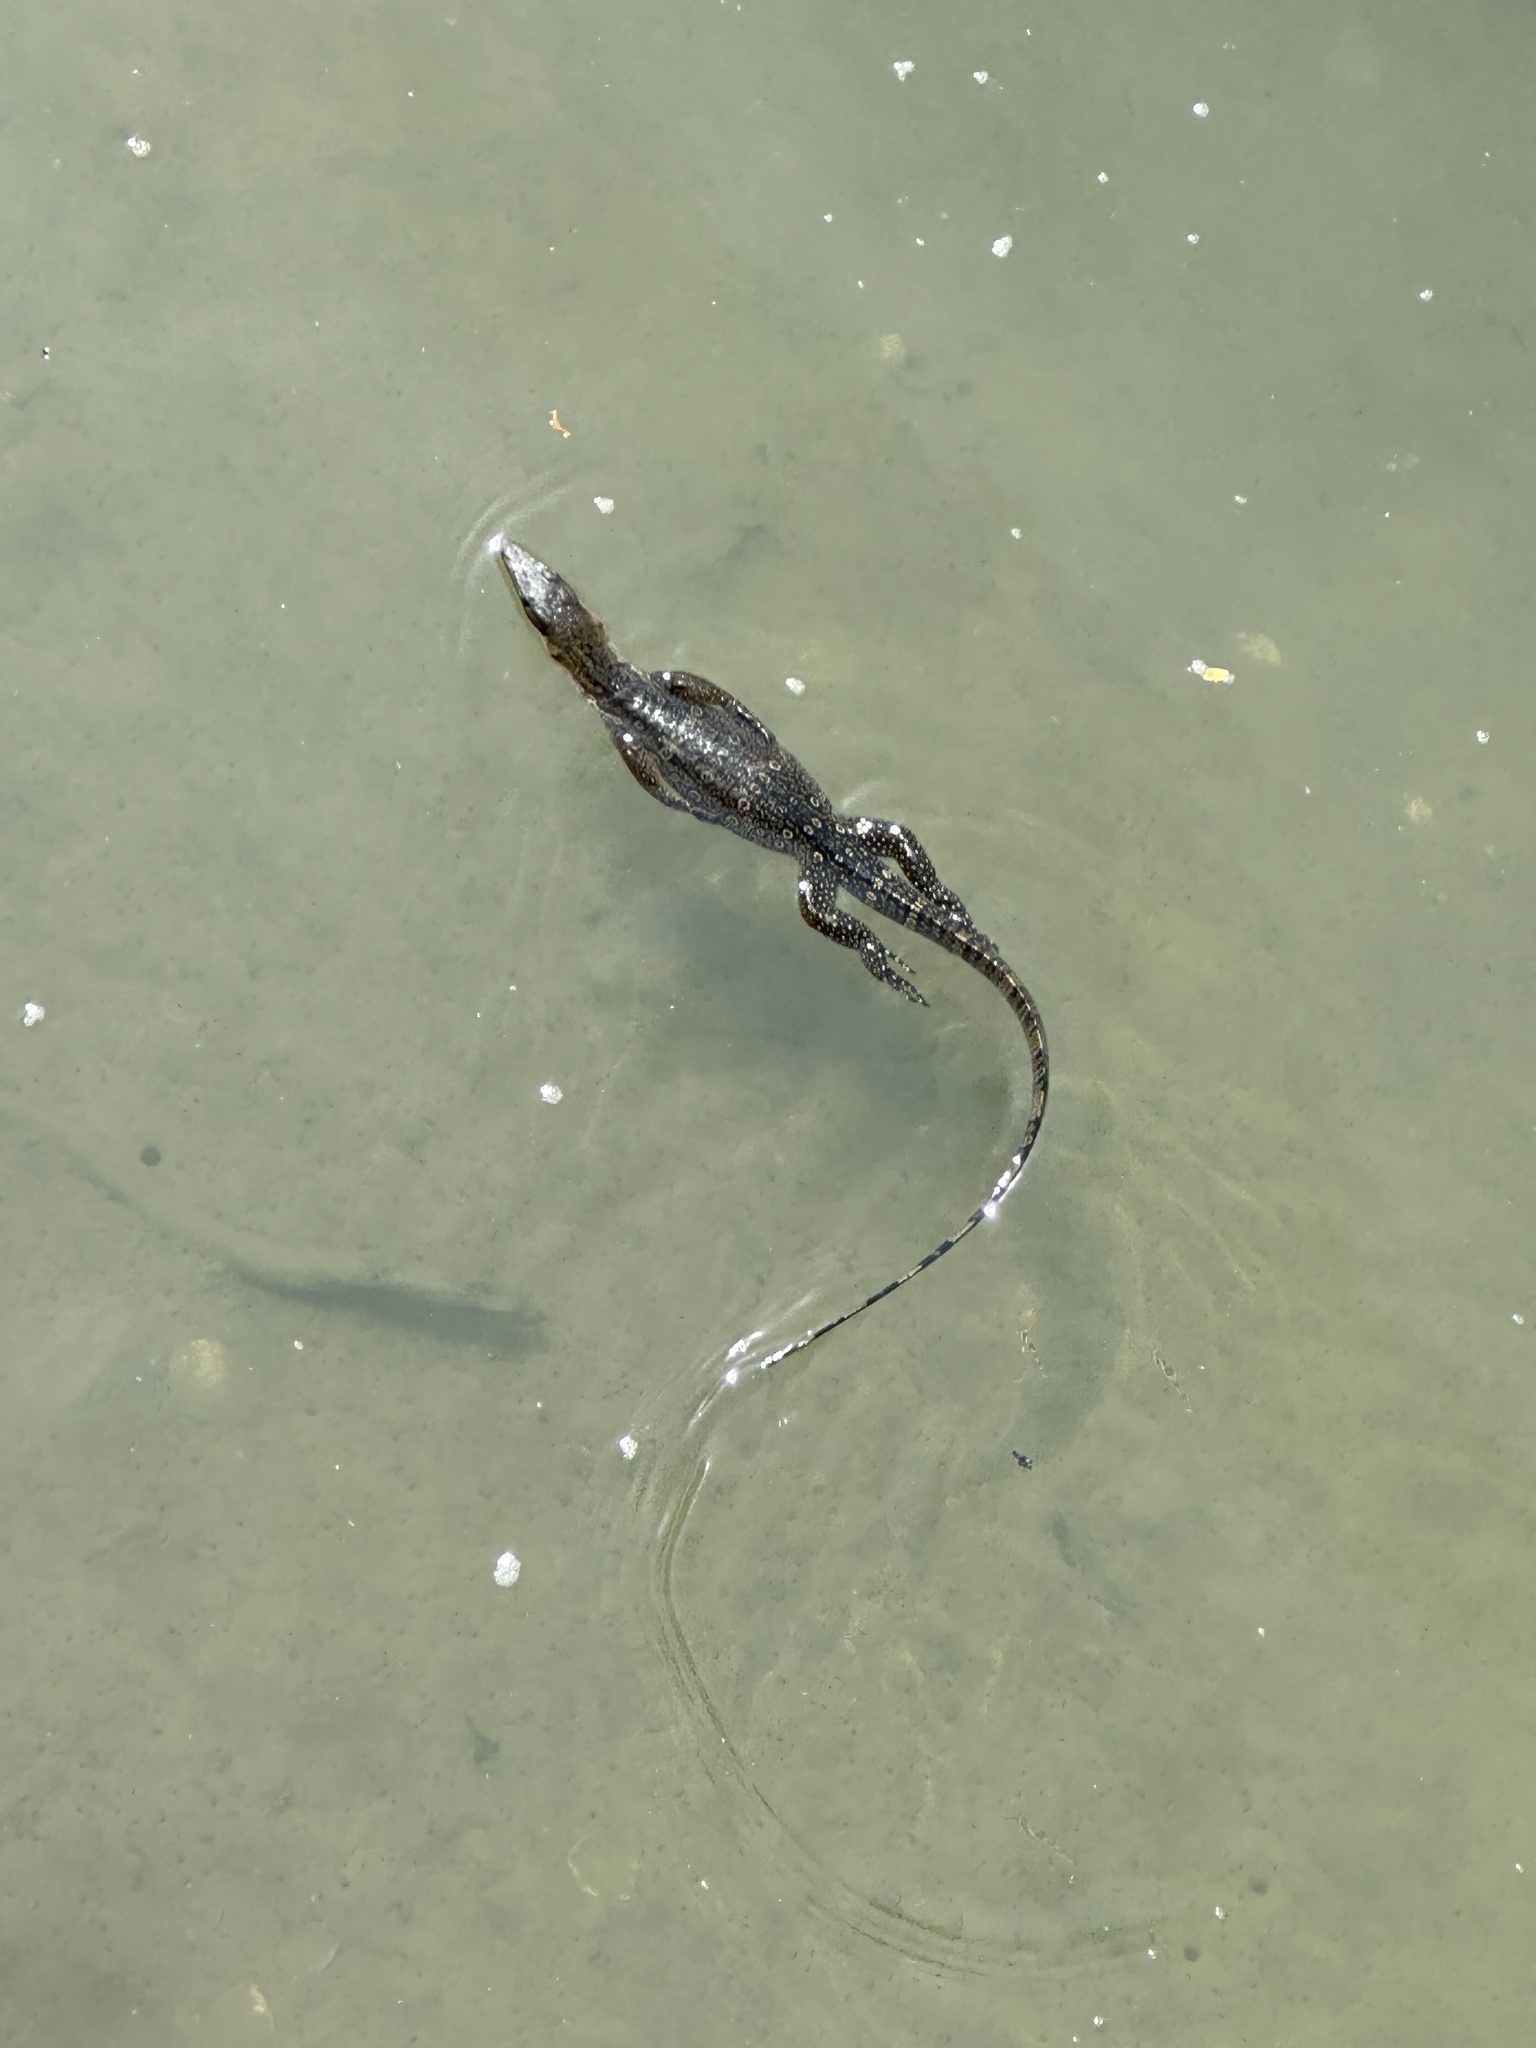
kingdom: Animalia
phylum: Chordata
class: Squamata
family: Varanidae
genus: Varanus
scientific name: Varanus salvator
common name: Common water monitor
